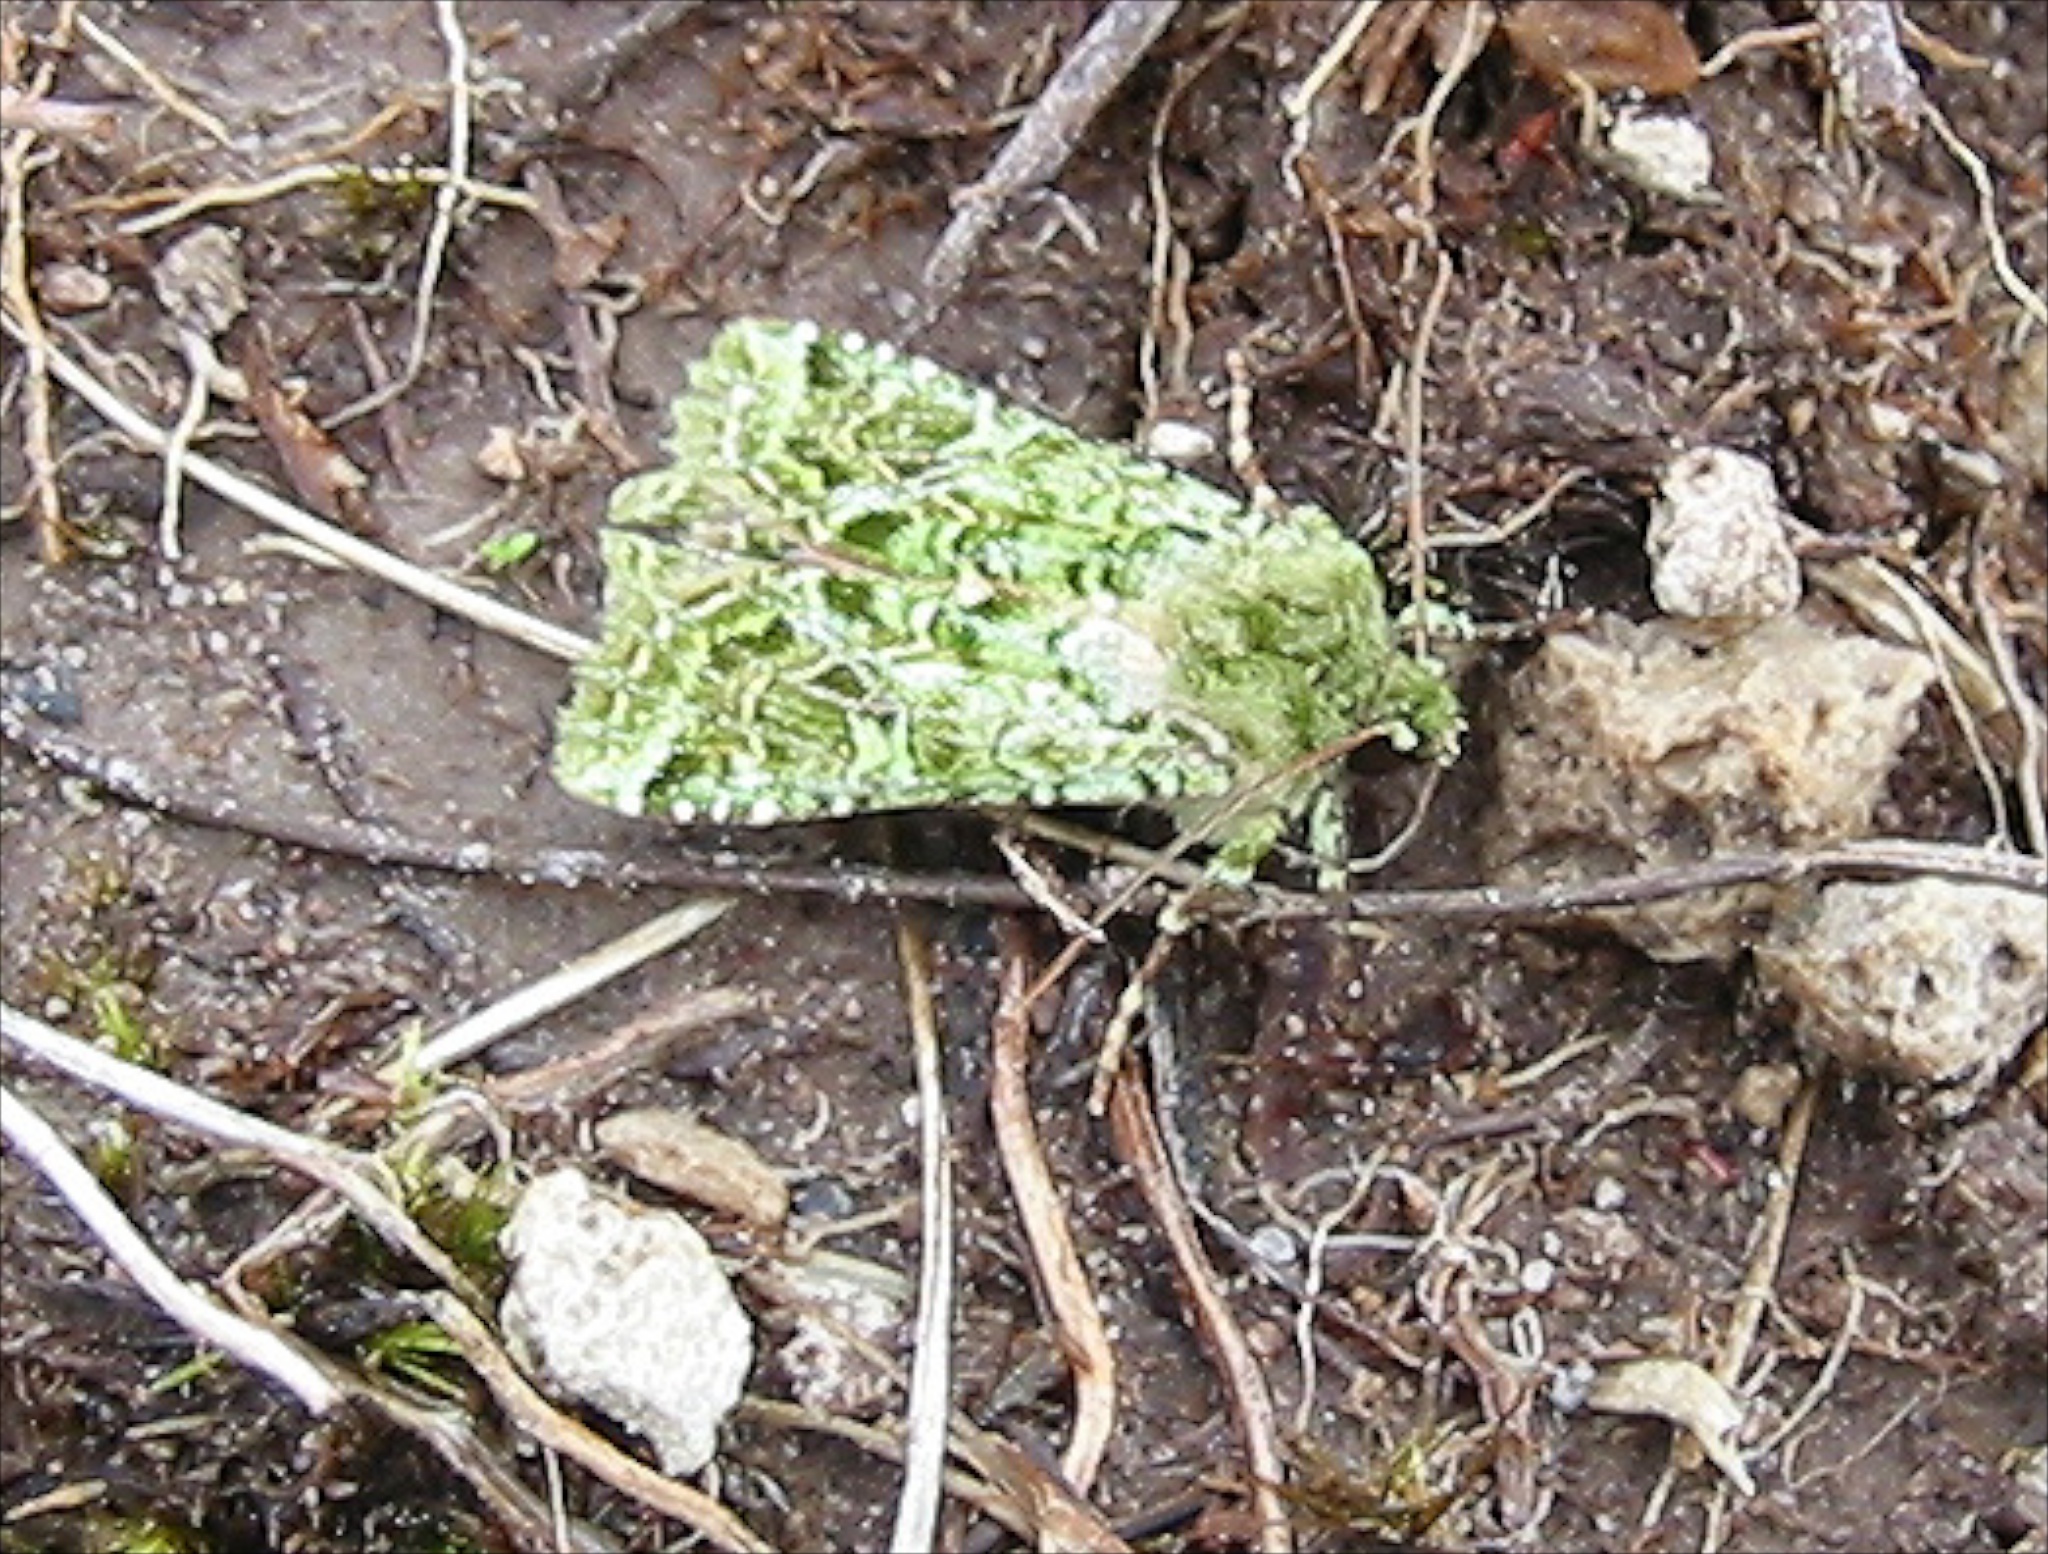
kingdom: Animalia
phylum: Arthropoda
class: Insecta
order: Lepidoptera
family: Noctuidae
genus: Feredayia
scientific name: Feredayia grammosa
